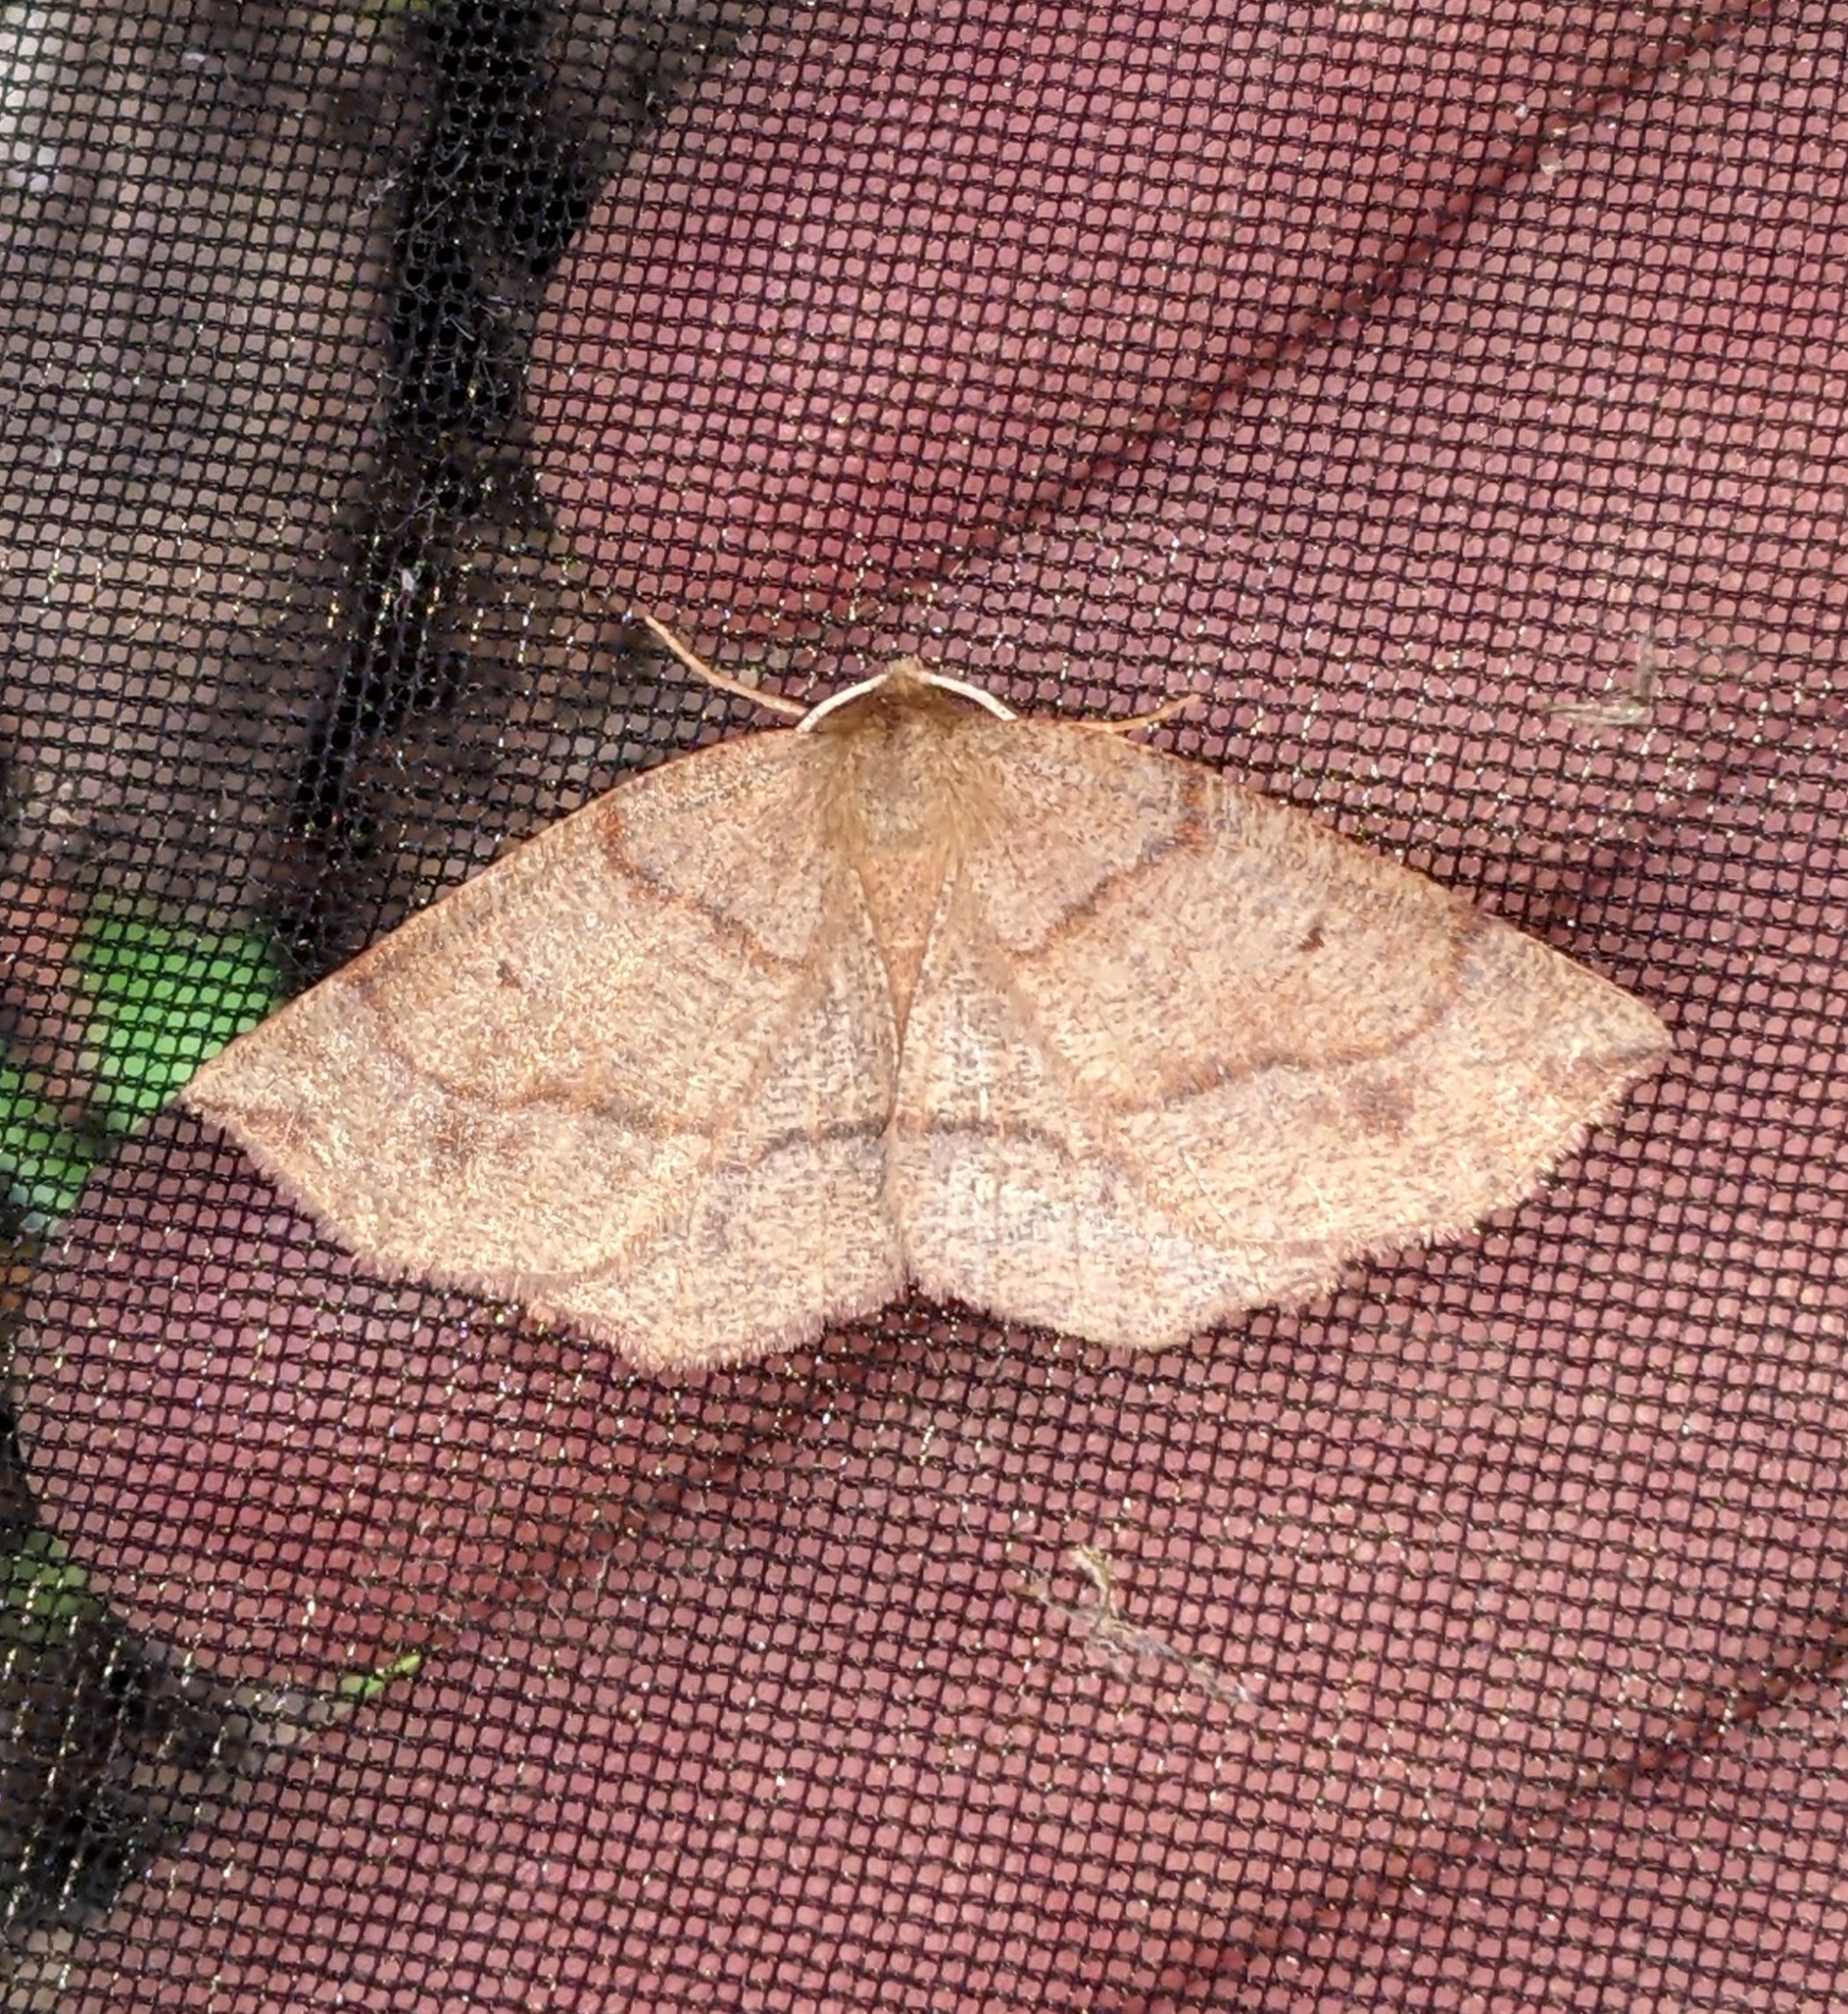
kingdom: Animalia
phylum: Arthropoda
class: Insecta
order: Lepidoptera
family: Geometridae
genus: Metarranthis
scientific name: Metarranthis duaria
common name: Ruddy metarranthis moth
